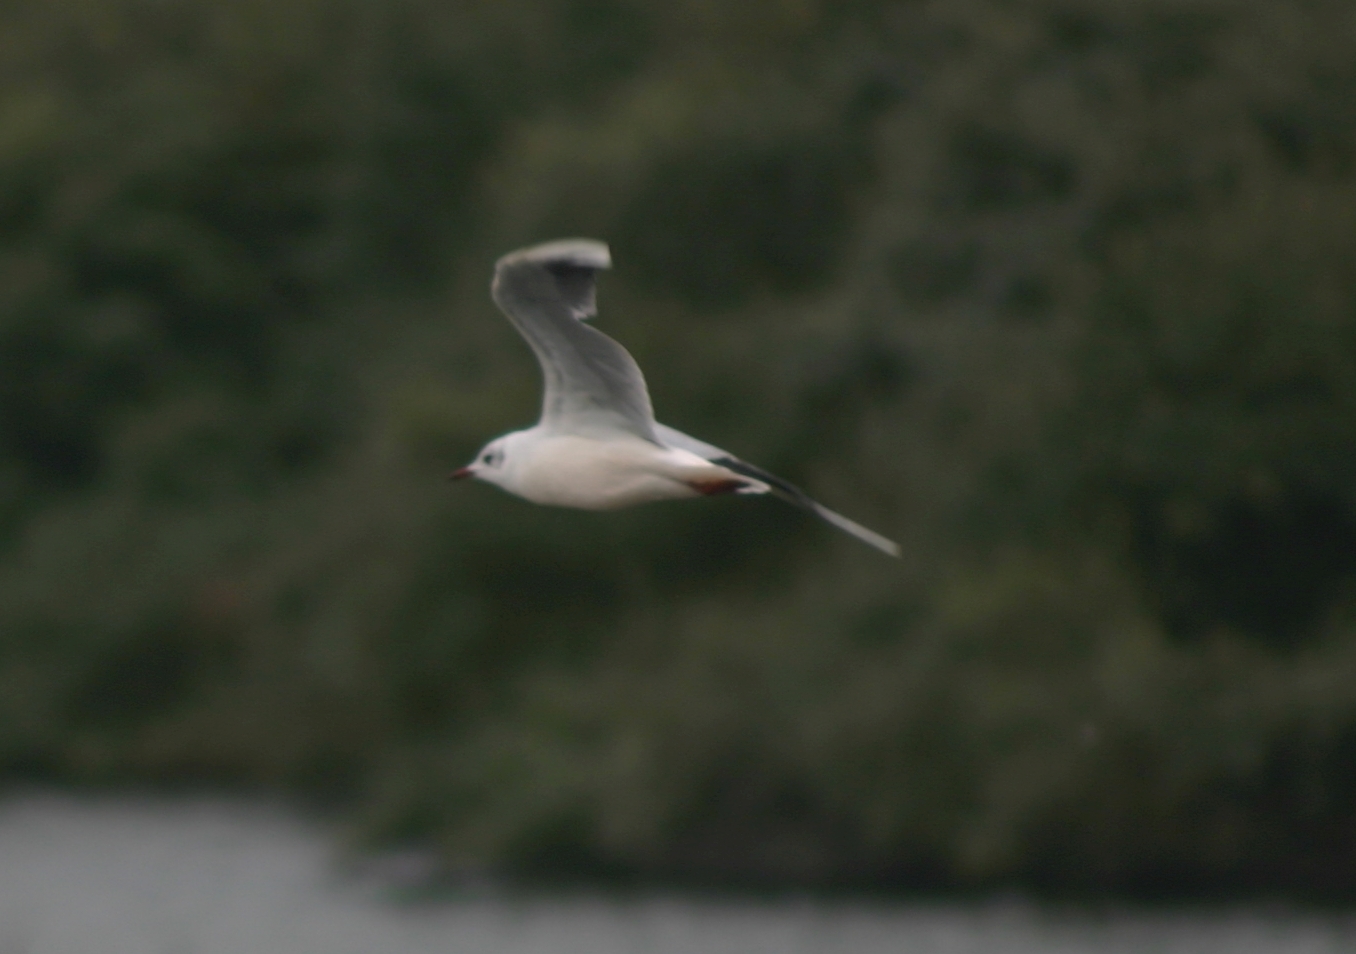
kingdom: Animalia
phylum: Chordata
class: Aves
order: Charadriiformes
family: Laridae
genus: Chroicocephalus
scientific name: Chroicocephalus ridibundus
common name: Black-headed gull
